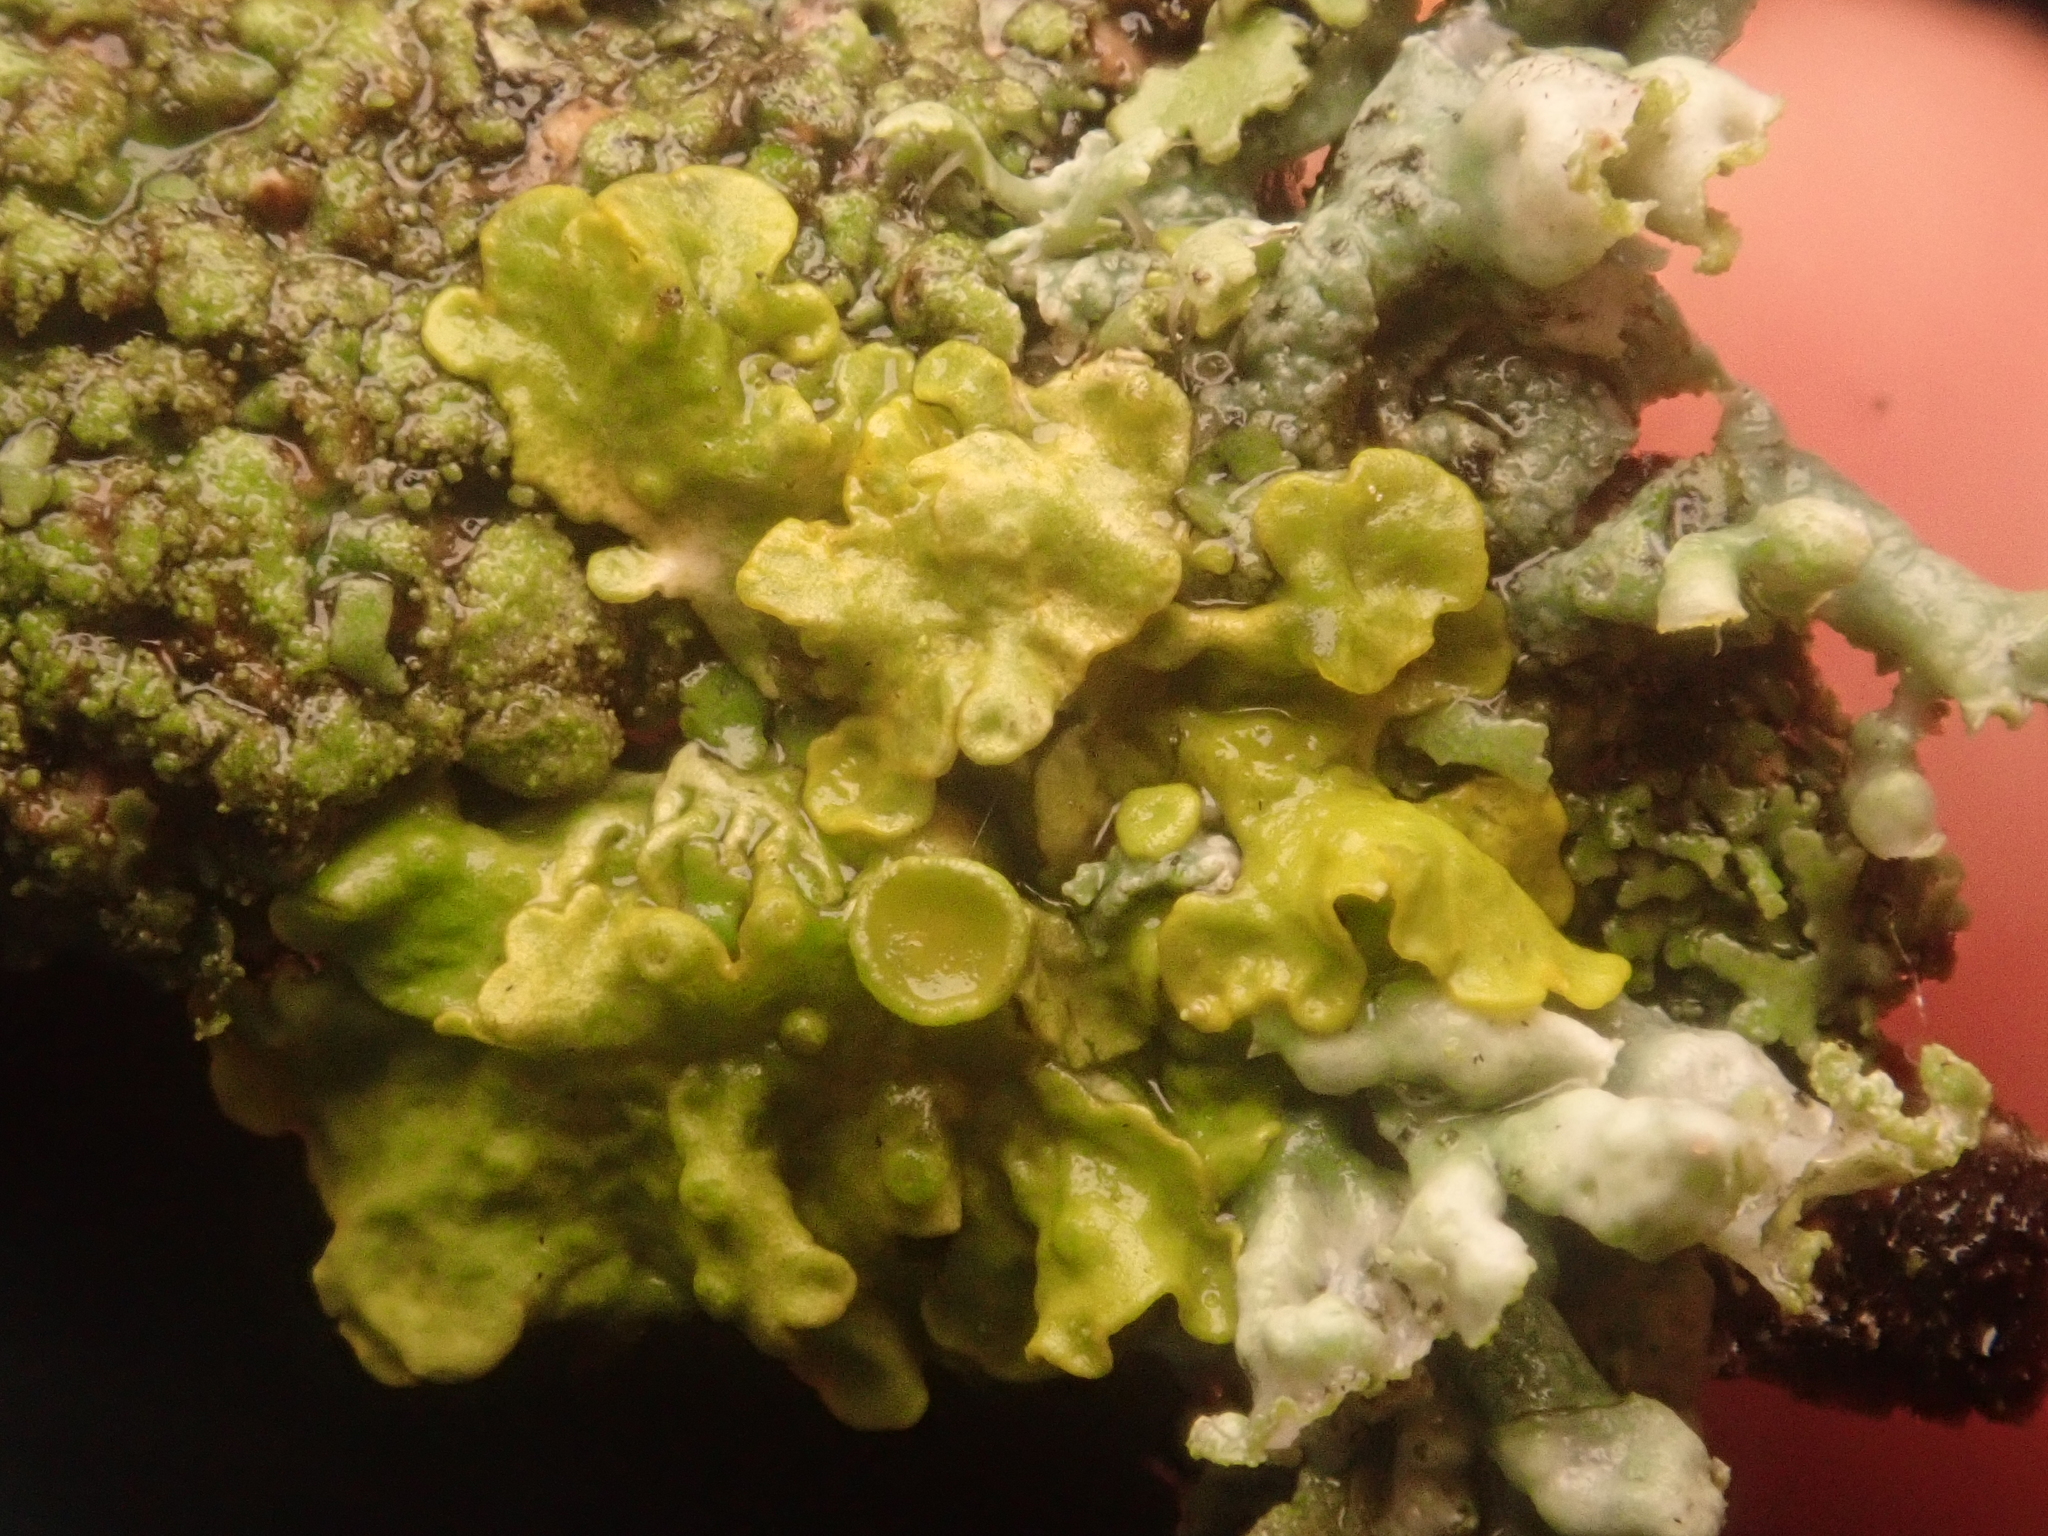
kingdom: Fungi
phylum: Ascomycota
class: Lecanoromycetes
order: Teloschistales
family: Teloschistaceae
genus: Xanthoria
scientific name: Xanthoria parietina
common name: Common orange lichen
